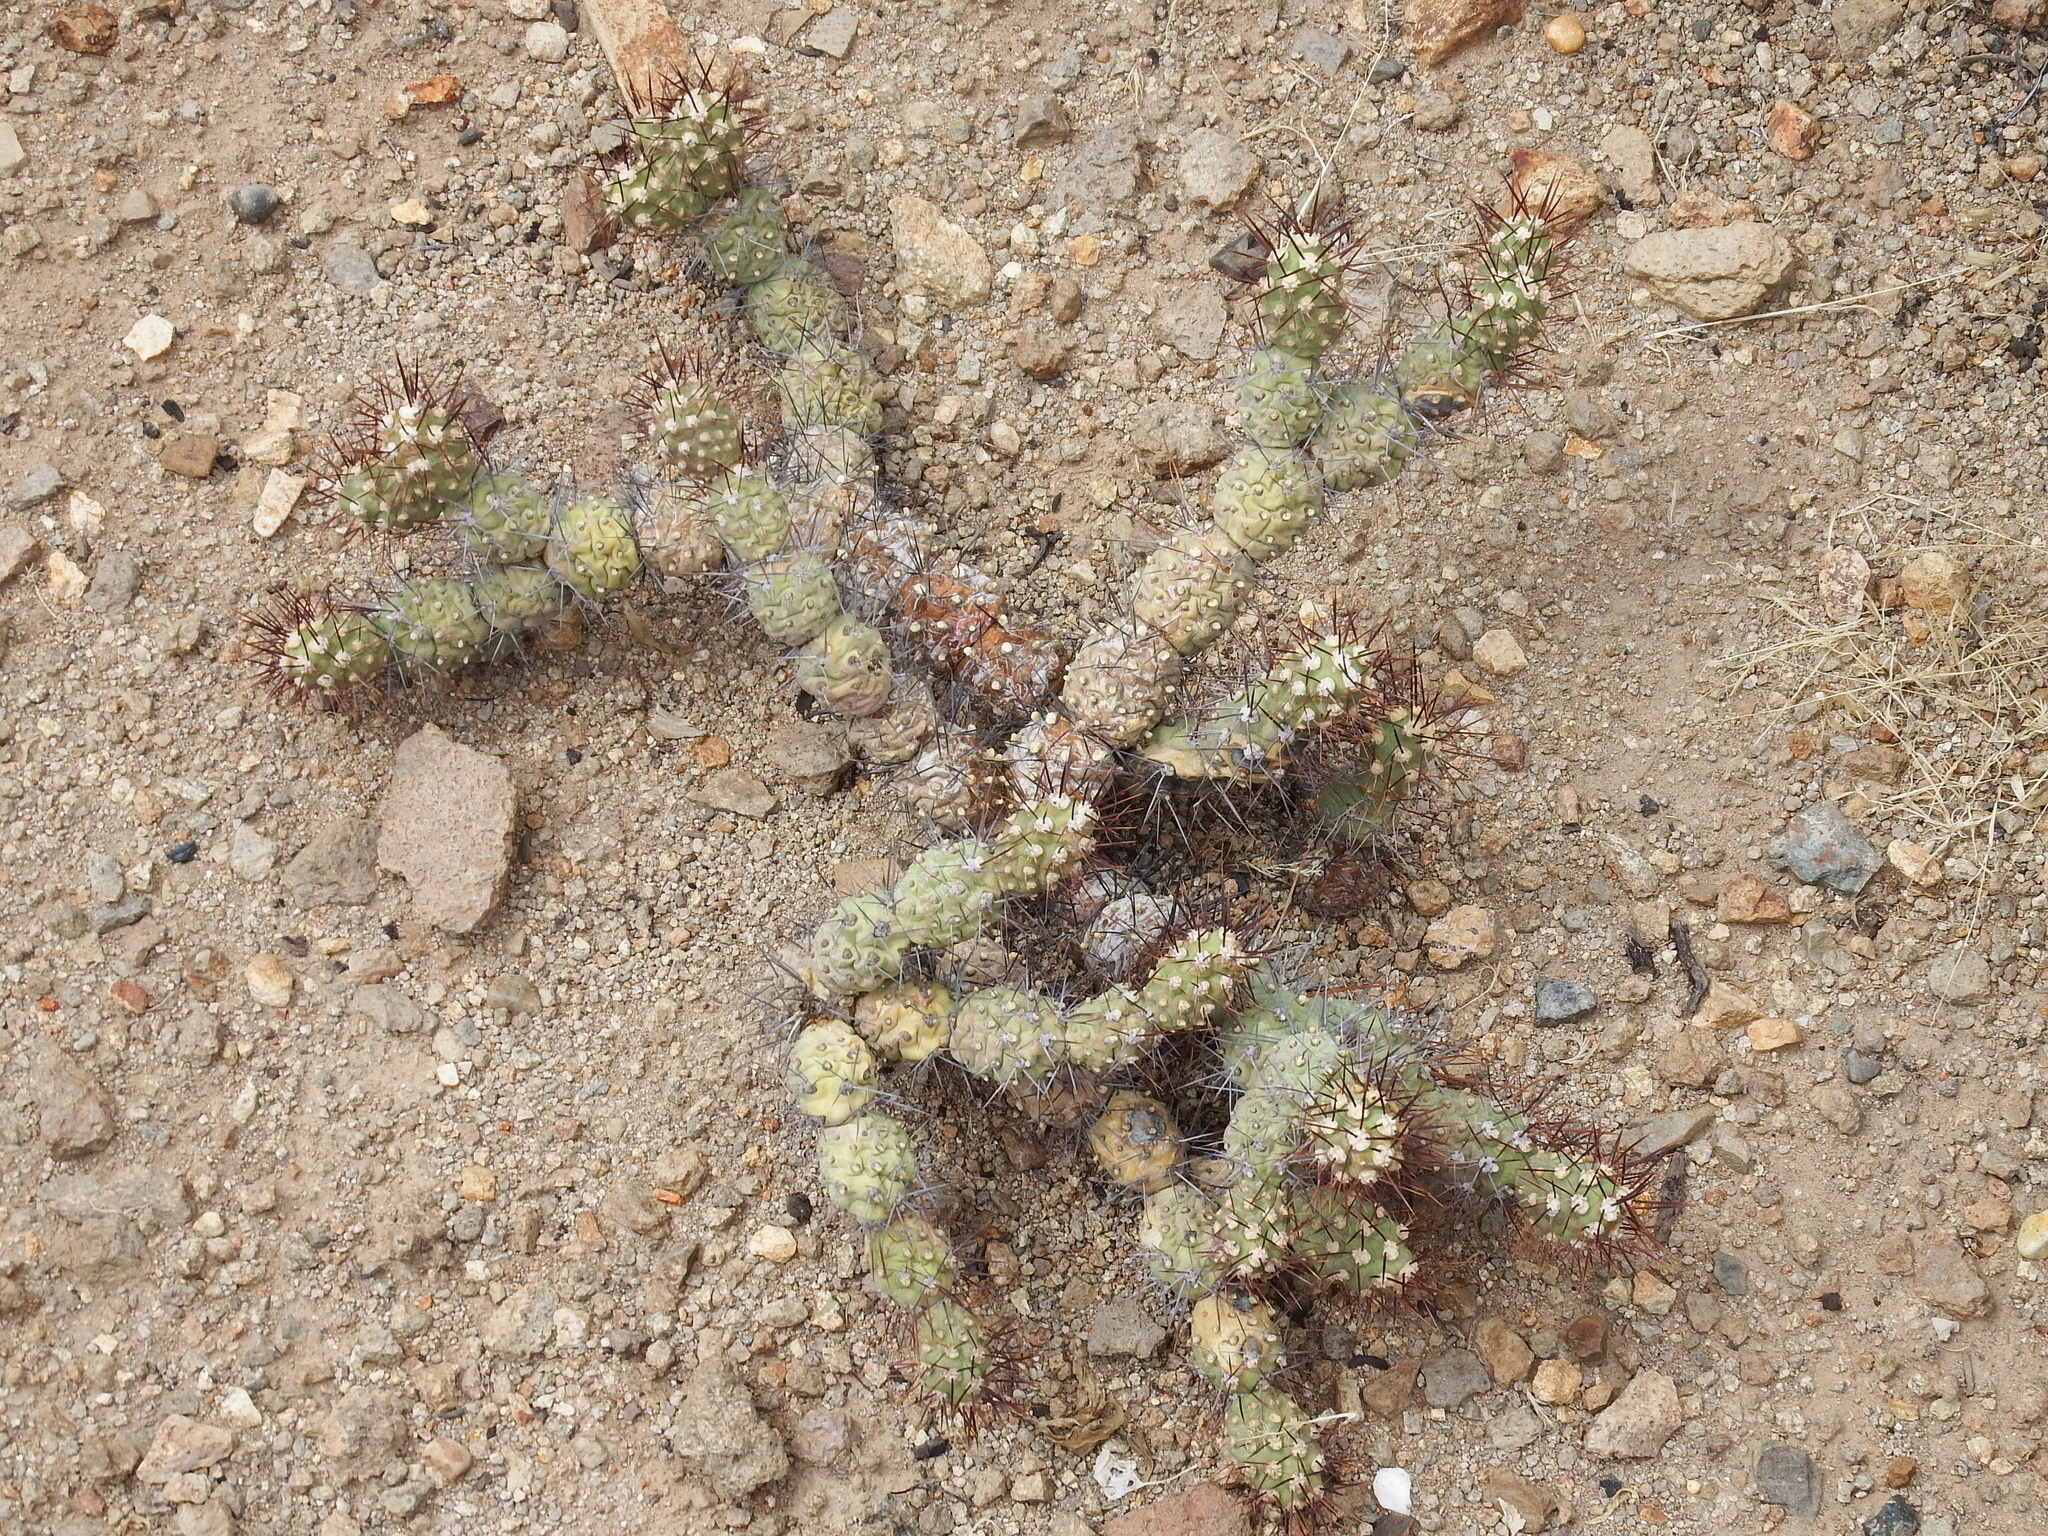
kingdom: Plantae
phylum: Tracheophyta
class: Magnoliopsida
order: Caryophyllales
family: Cactaceae
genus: Cumulopuntia
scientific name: Cumulopuntia leucophaea
